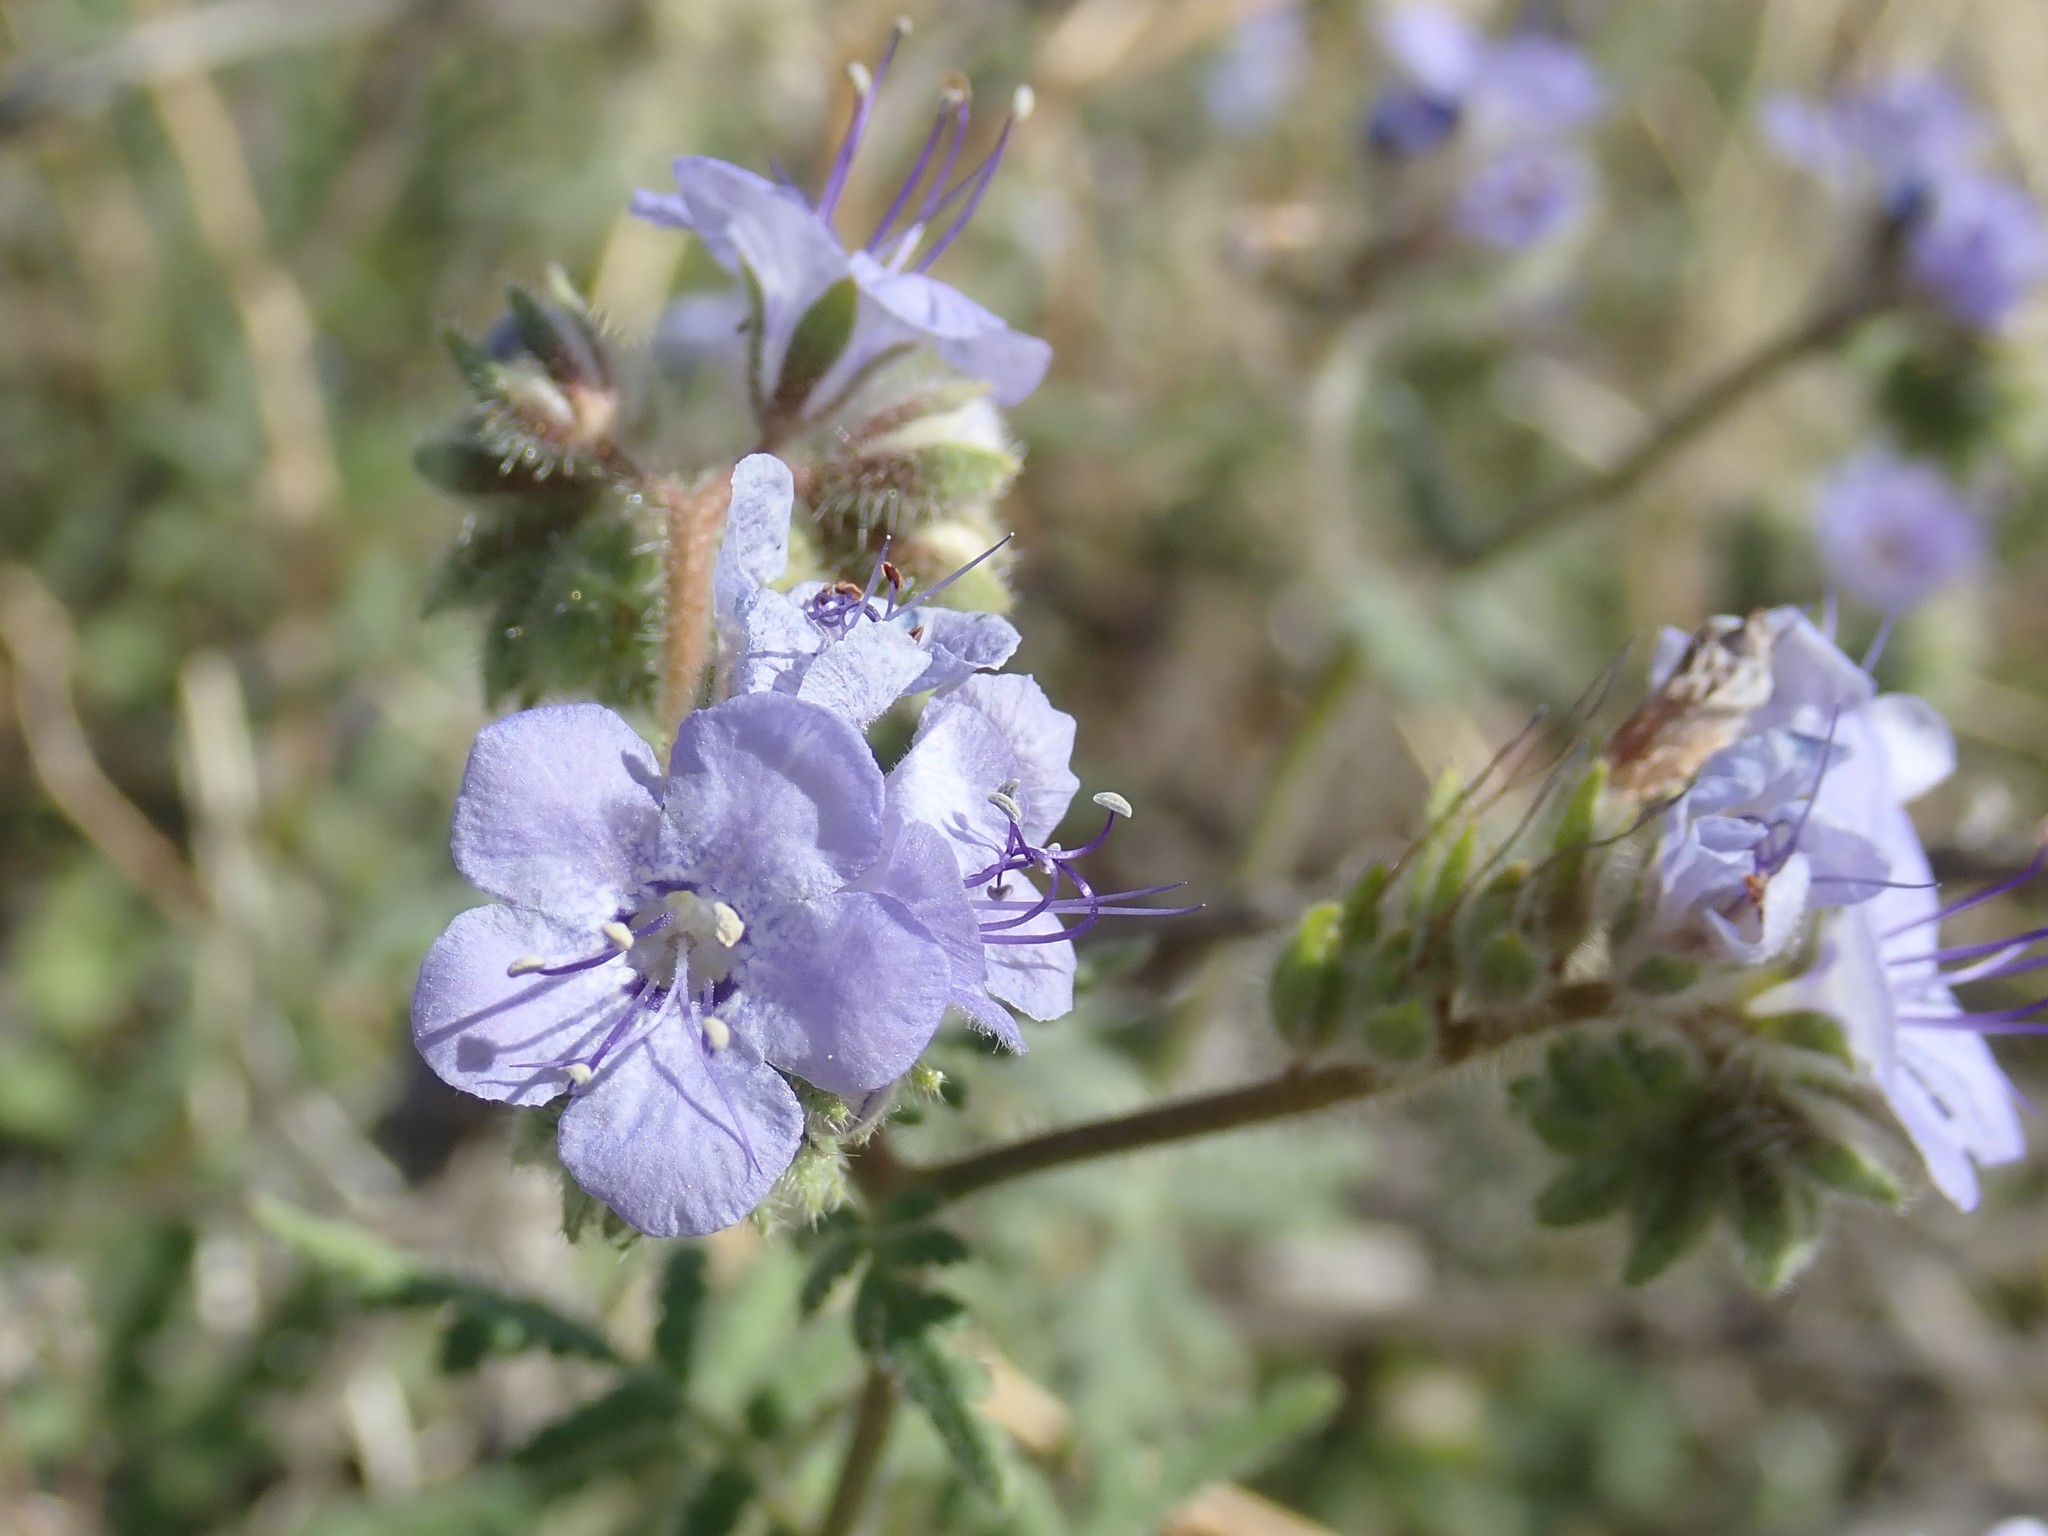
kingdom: Plantae
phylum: Tracheophyta
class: Magnoliopsida
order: Boraginales
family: Hydrophyllaceae
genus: Phacelia
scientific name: Phacelia distans
